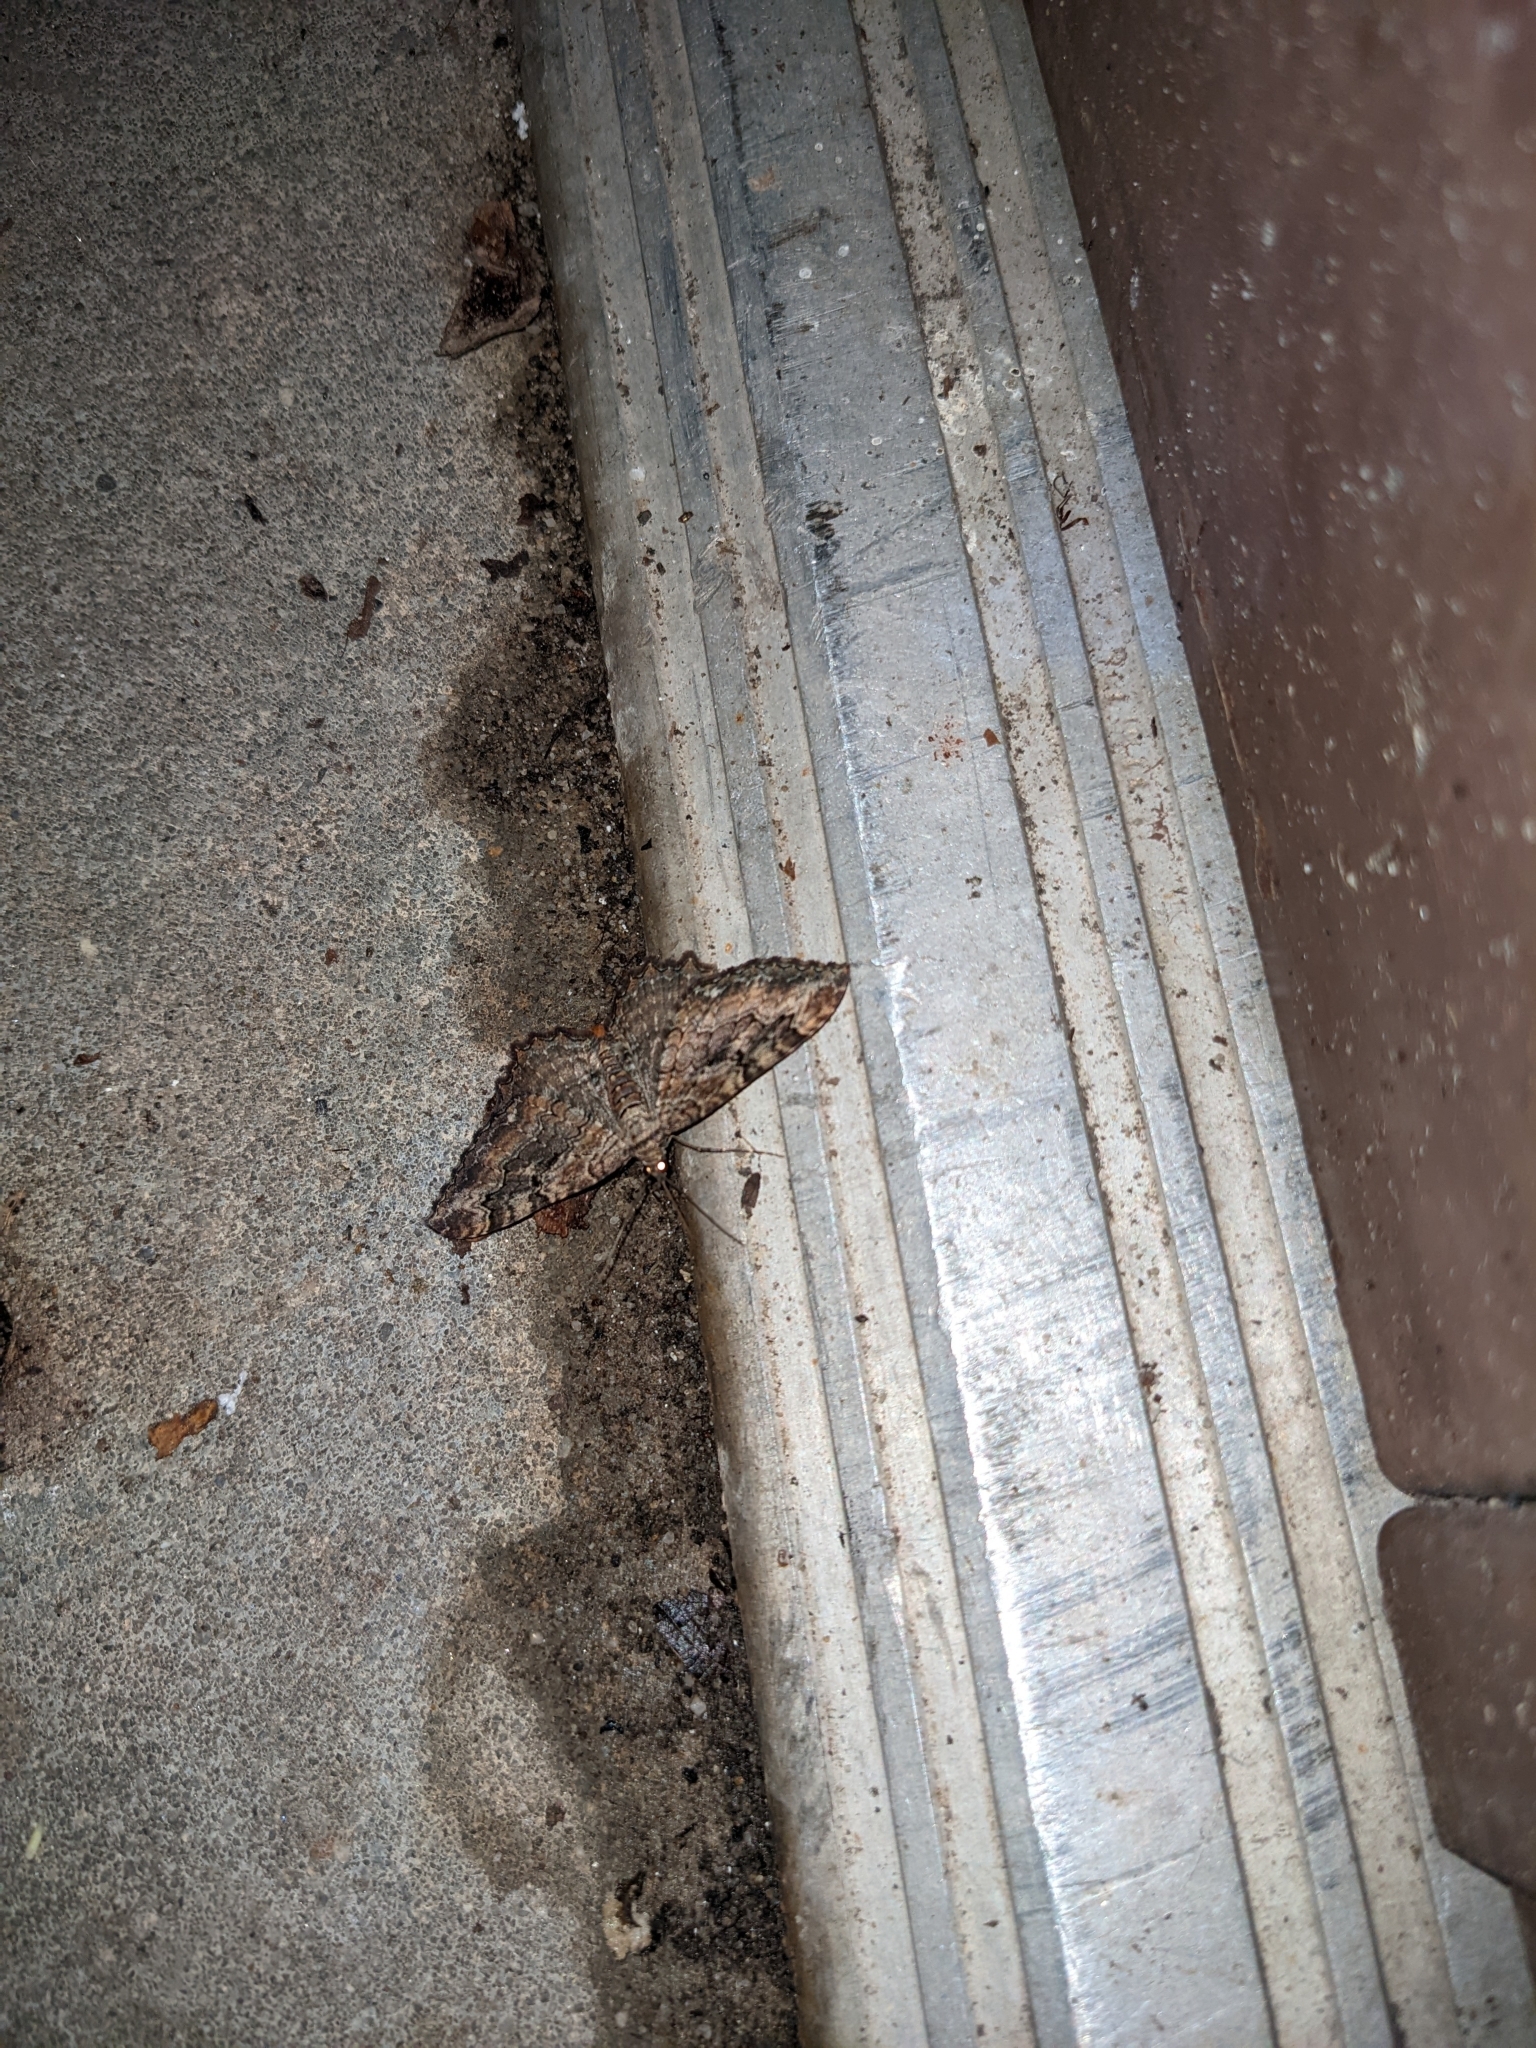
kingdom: Animalia
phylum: Arthropoda
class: Insecta
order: Lepidoptera
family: Geometridae
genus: Rheumaptera
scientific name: Rheumaptera
